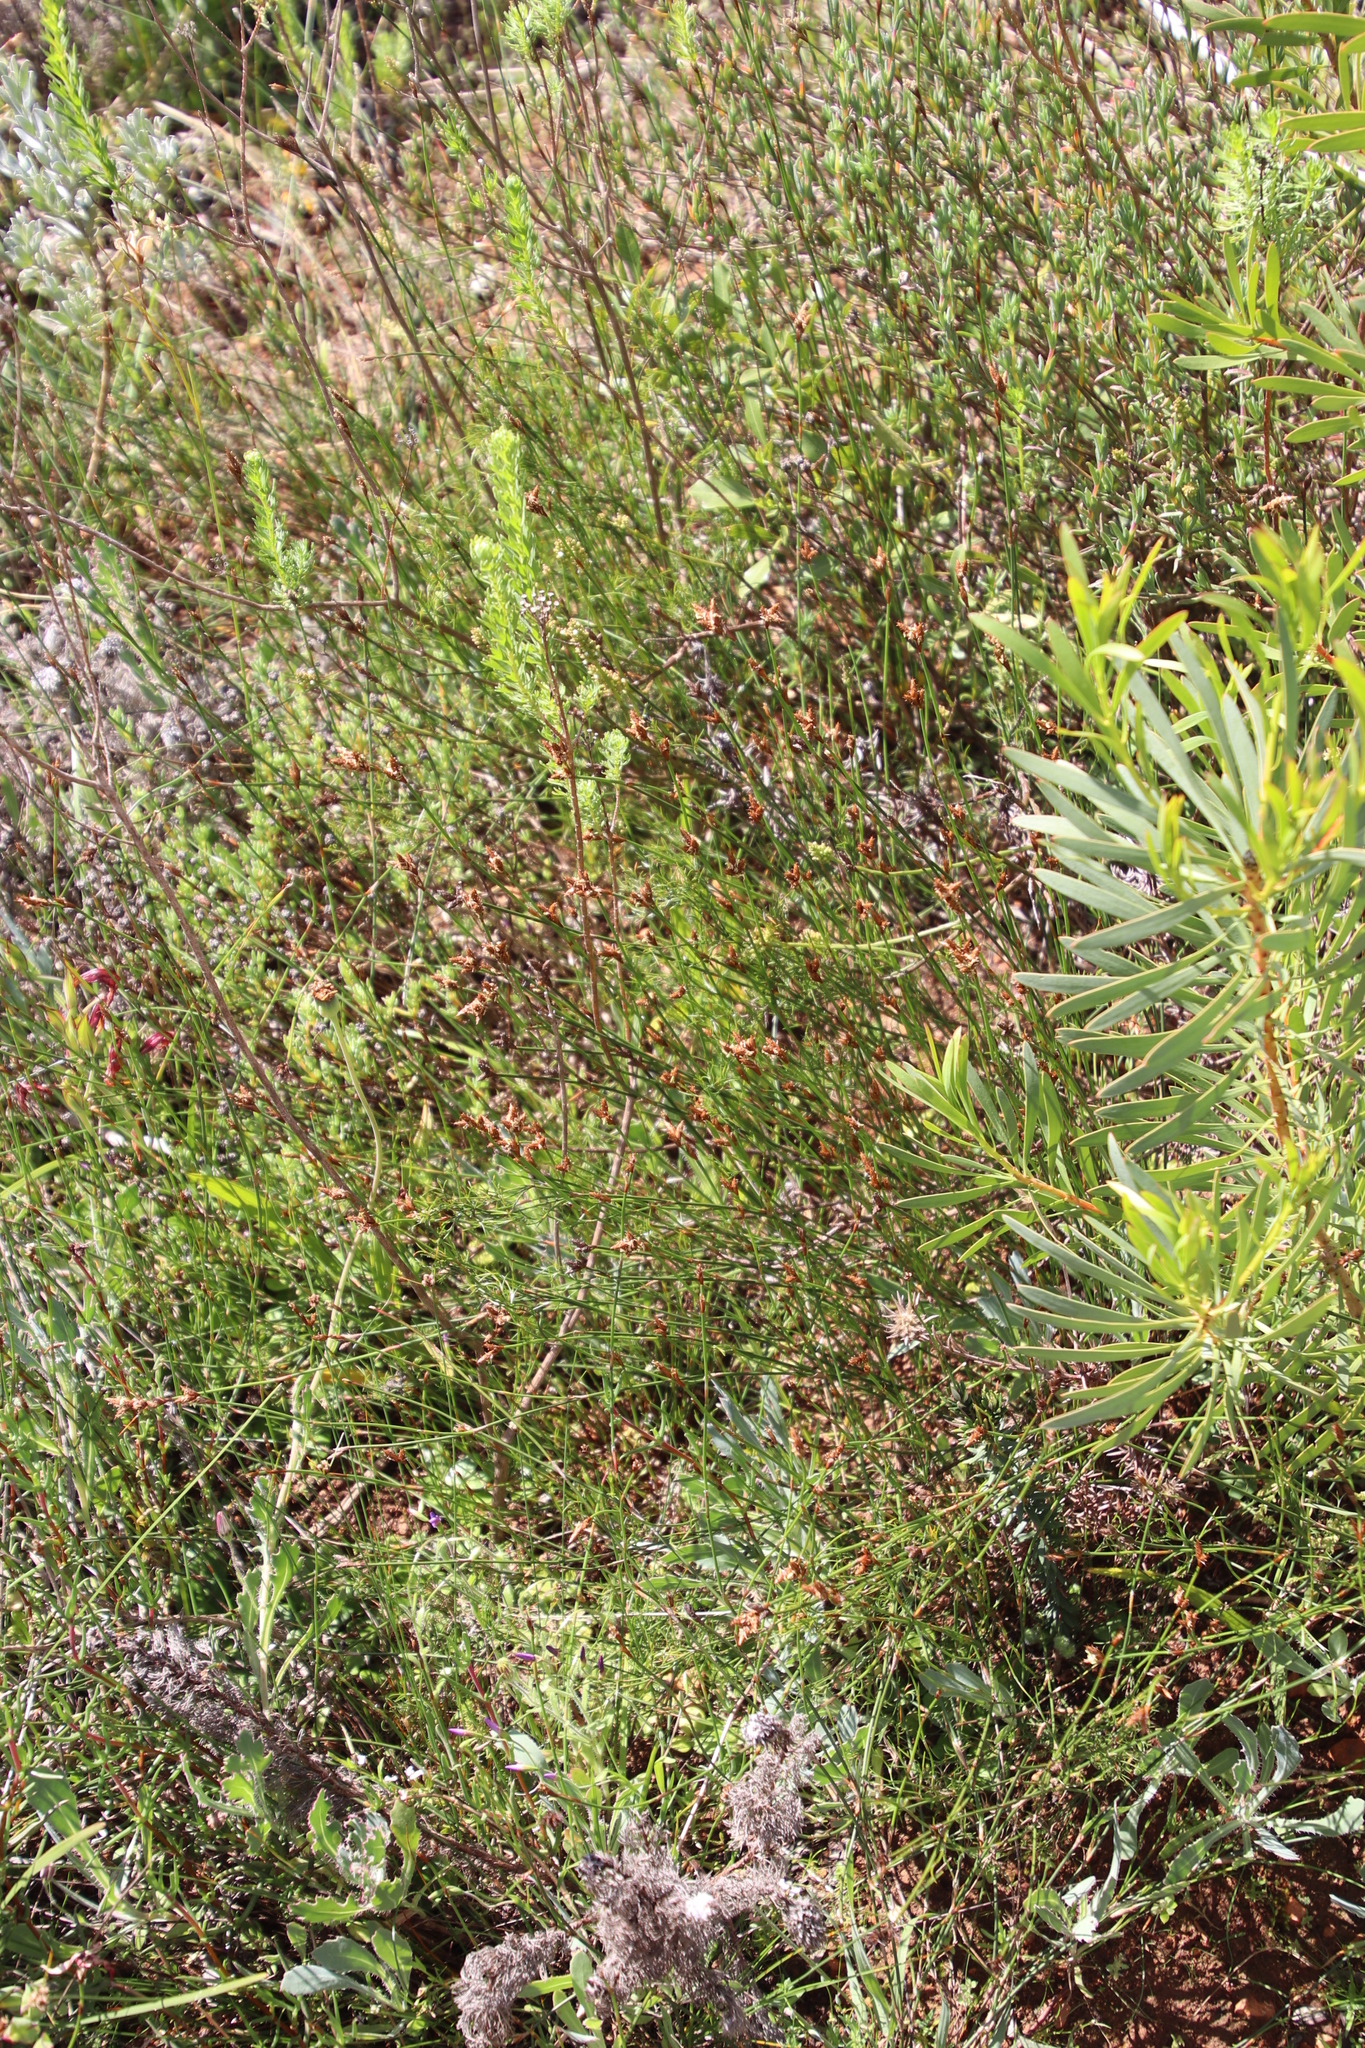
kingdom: Plantae
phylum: Tracheophyta
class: Liliopsida
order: Poales
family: Restionaceae
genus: Restio
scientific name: Restio capensis
